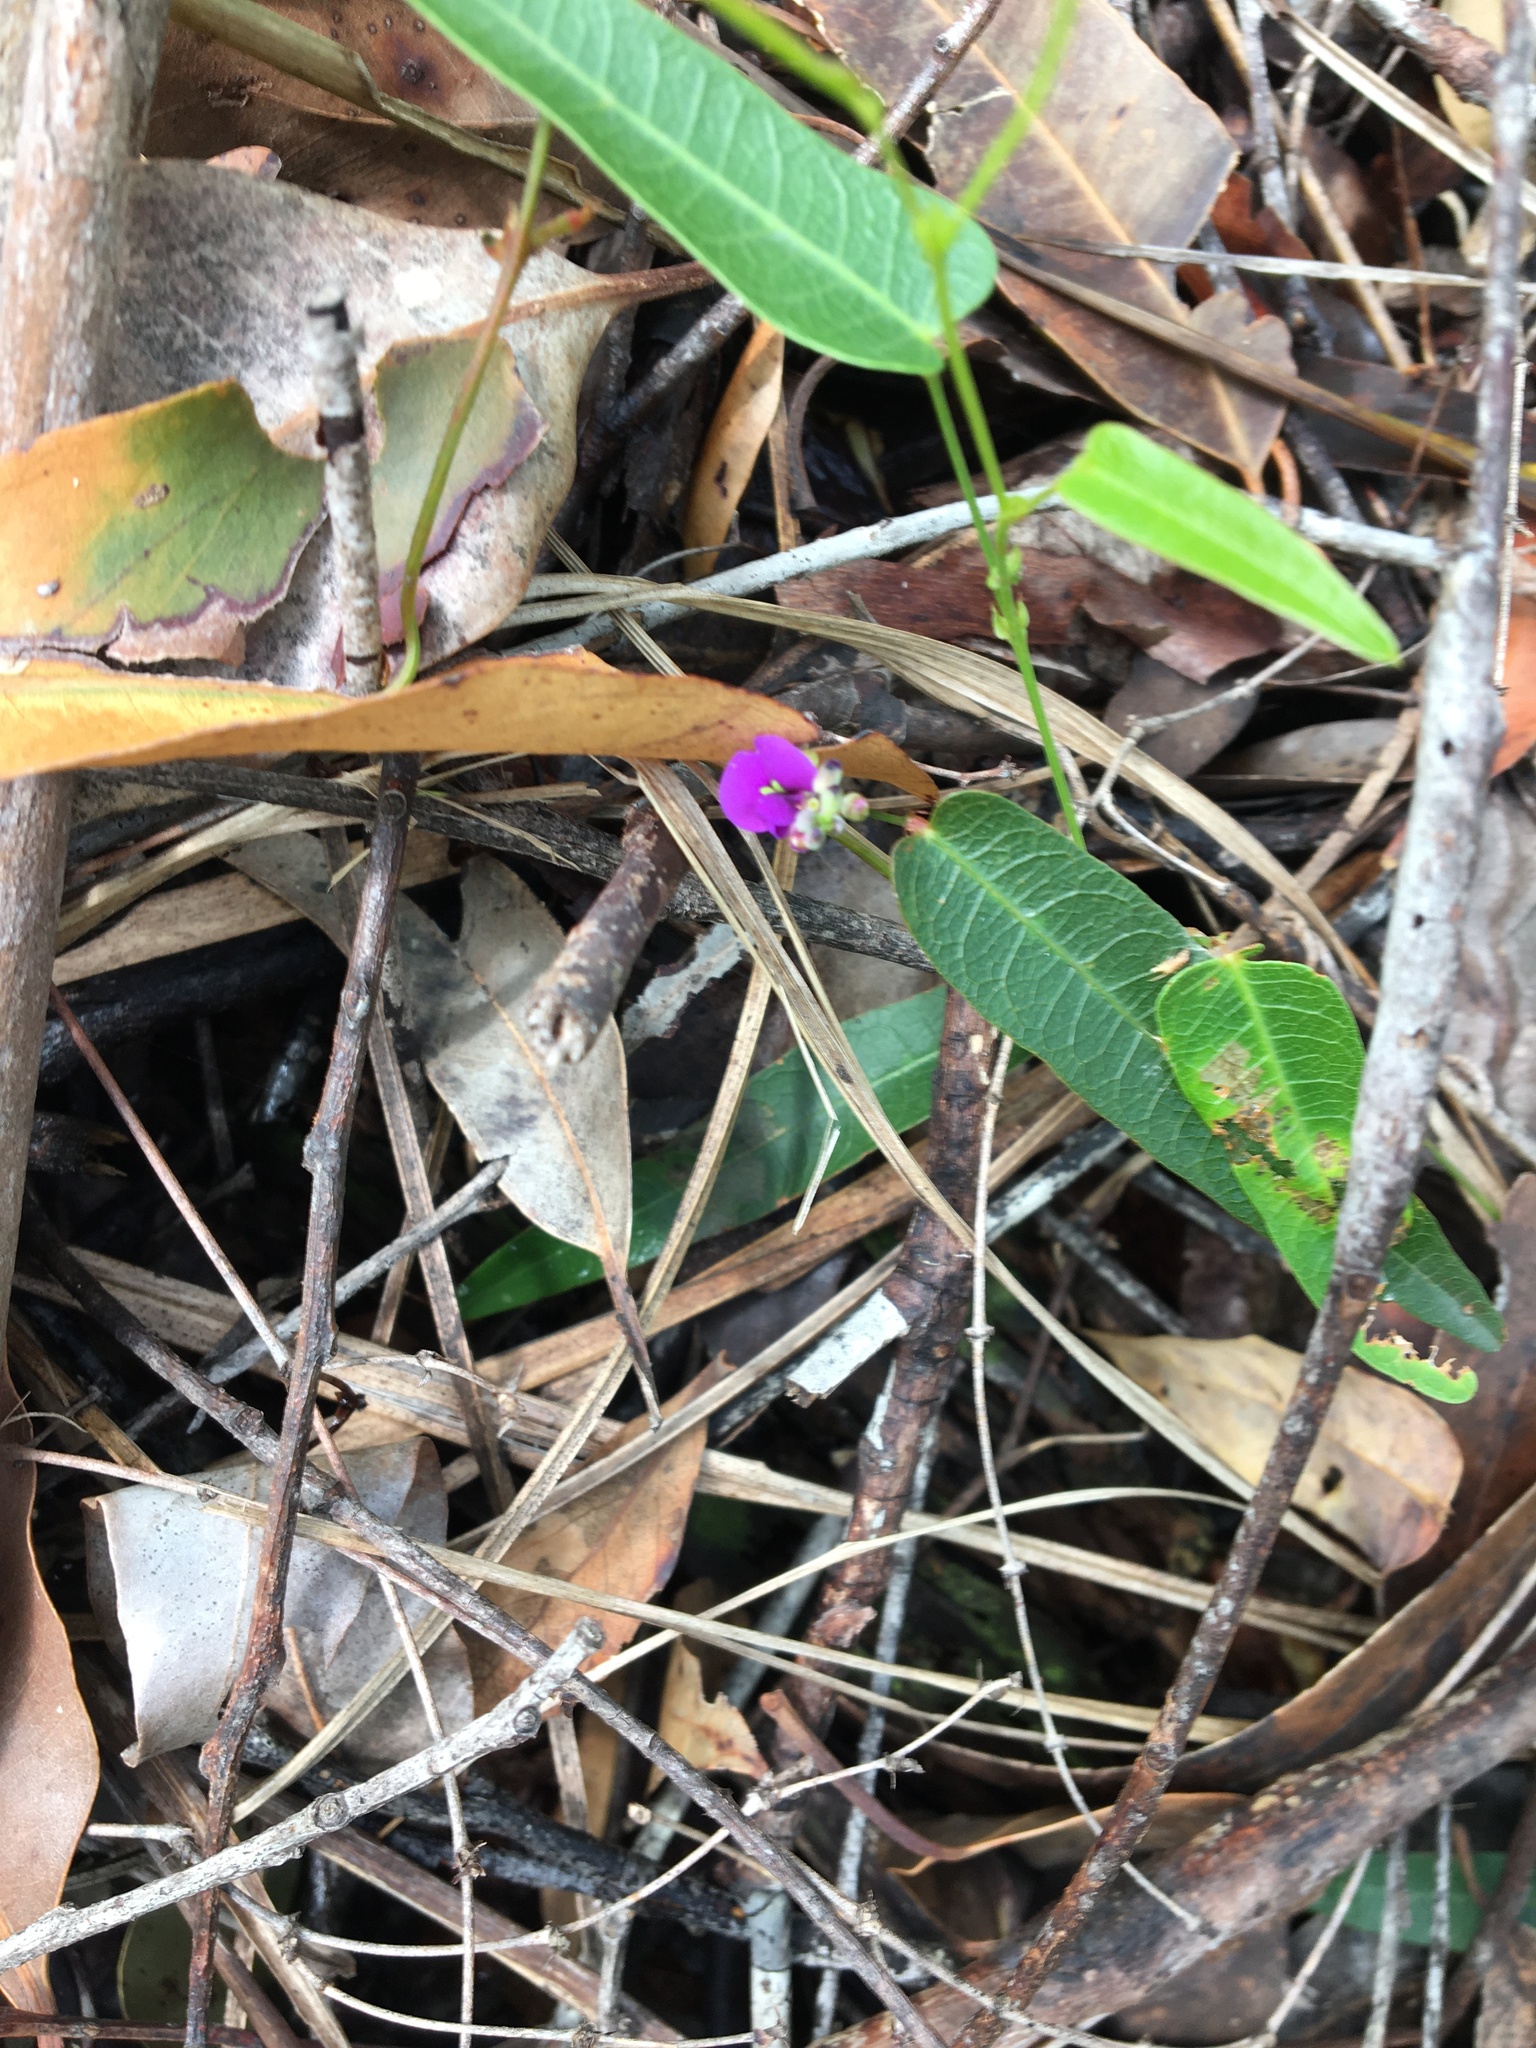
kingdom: Plantae
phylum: Tracheophyta
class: Magnoliopsida
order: Fabales
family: Fabaceae
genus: Hardenbergia
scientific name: Hardenbergia violacea
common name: Coral-pea
